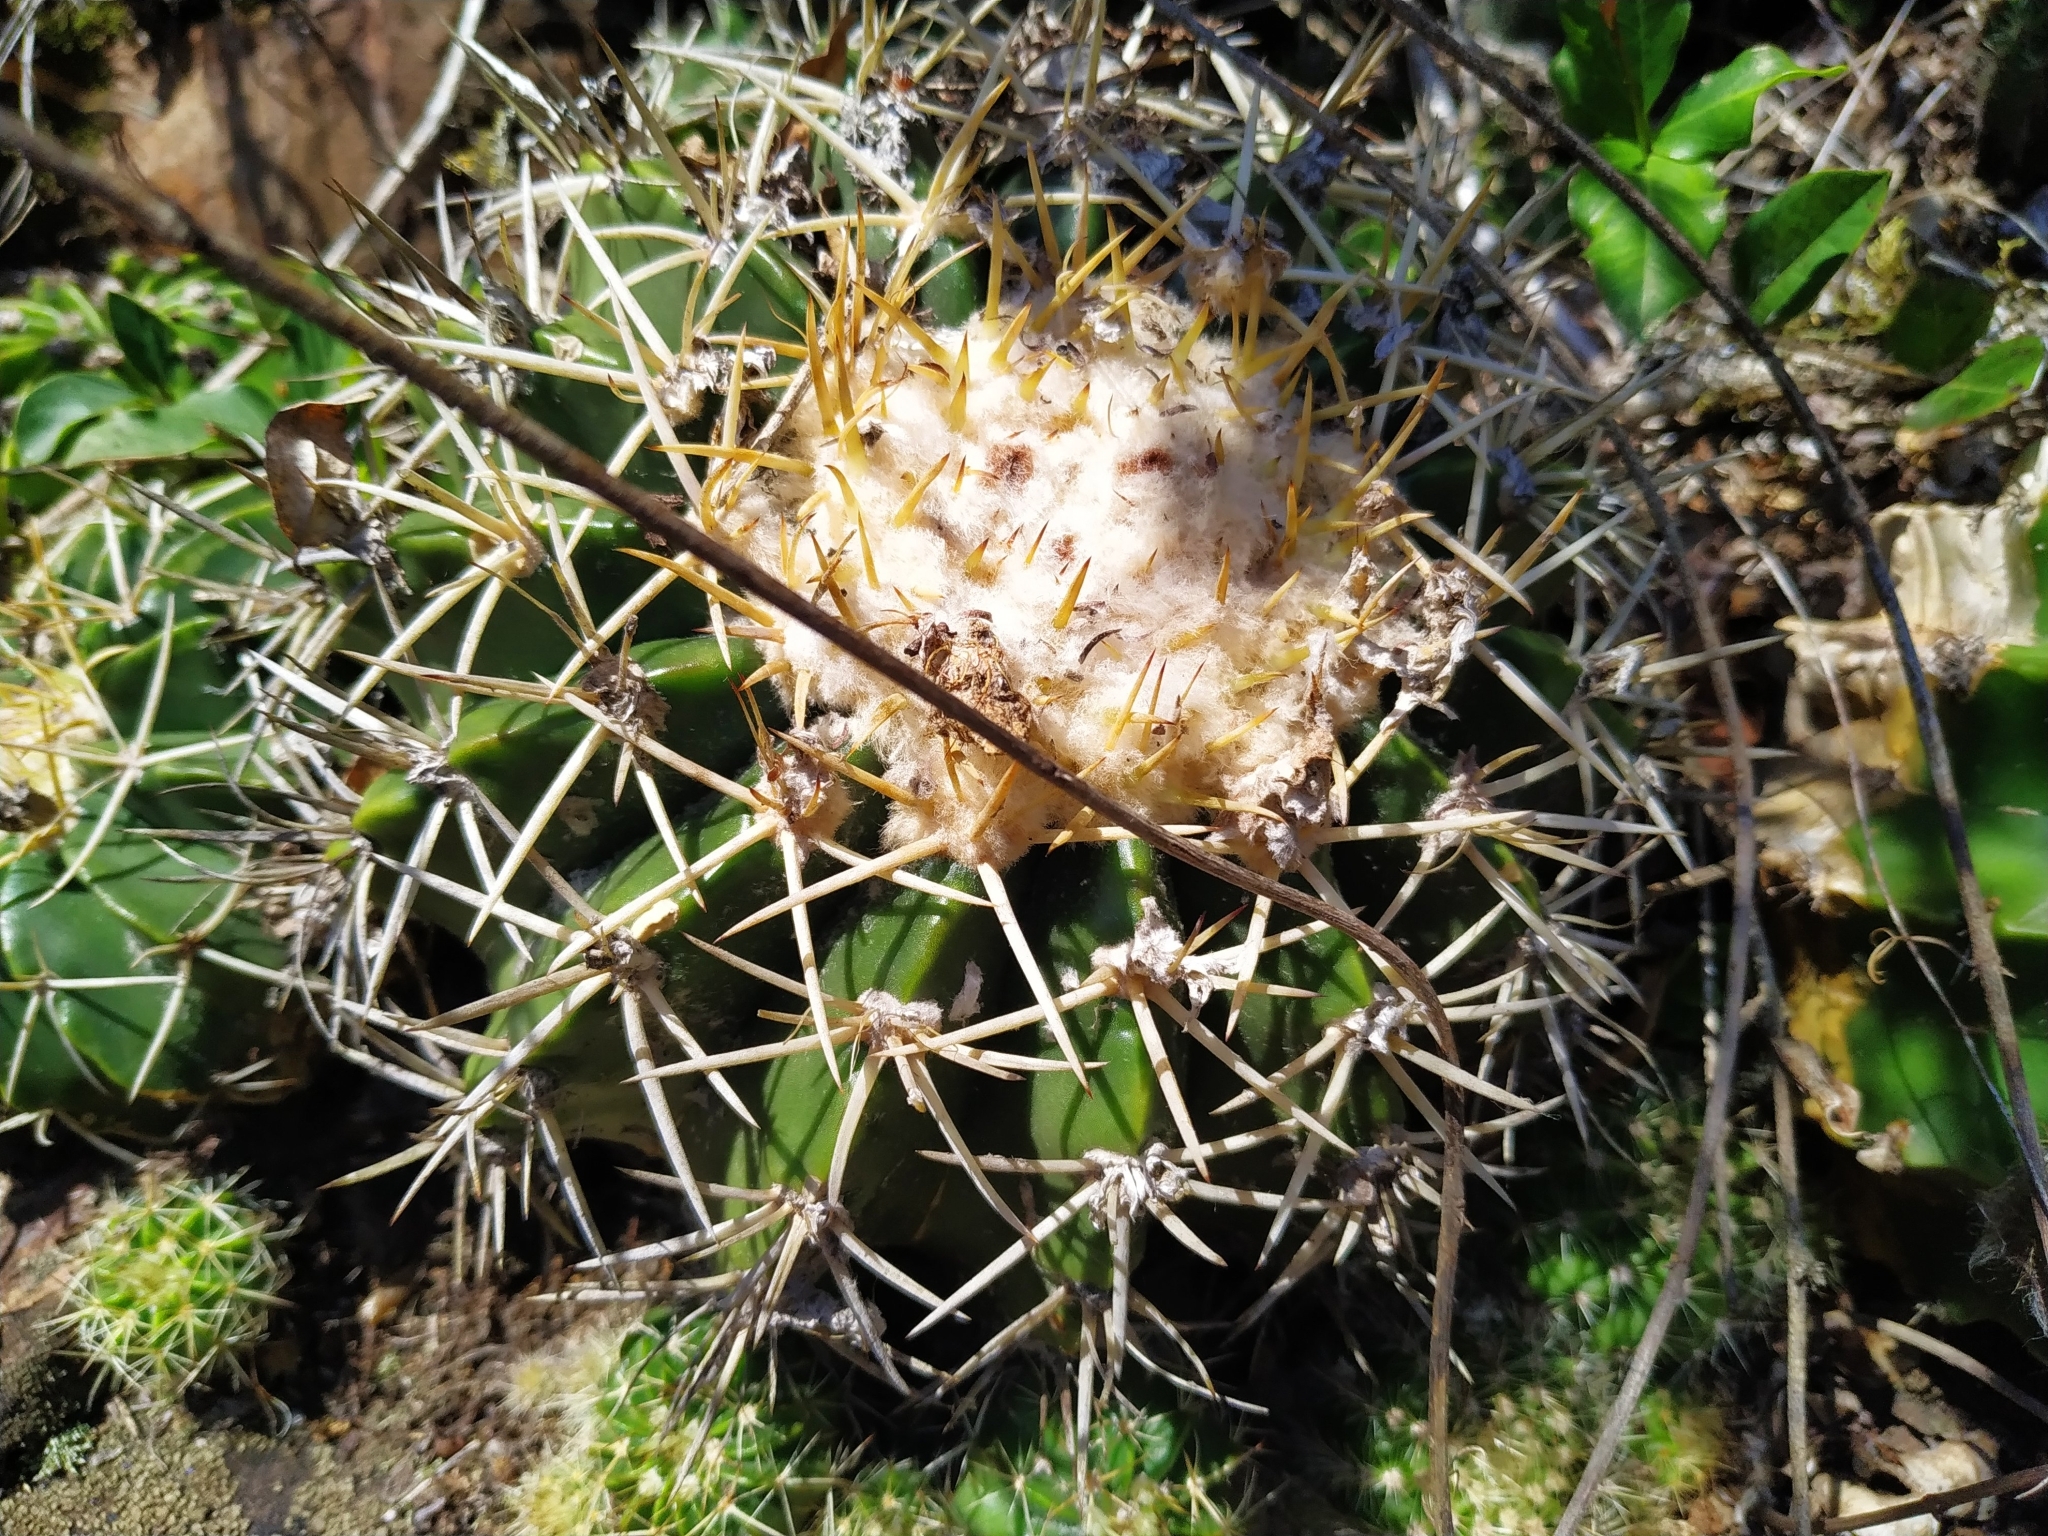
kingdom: Plantae
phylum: Tracheophyta
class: Magnoliopsida
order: Caryophyllales
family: Cactaceae
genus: Parodia
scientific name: Parodia erinacea
